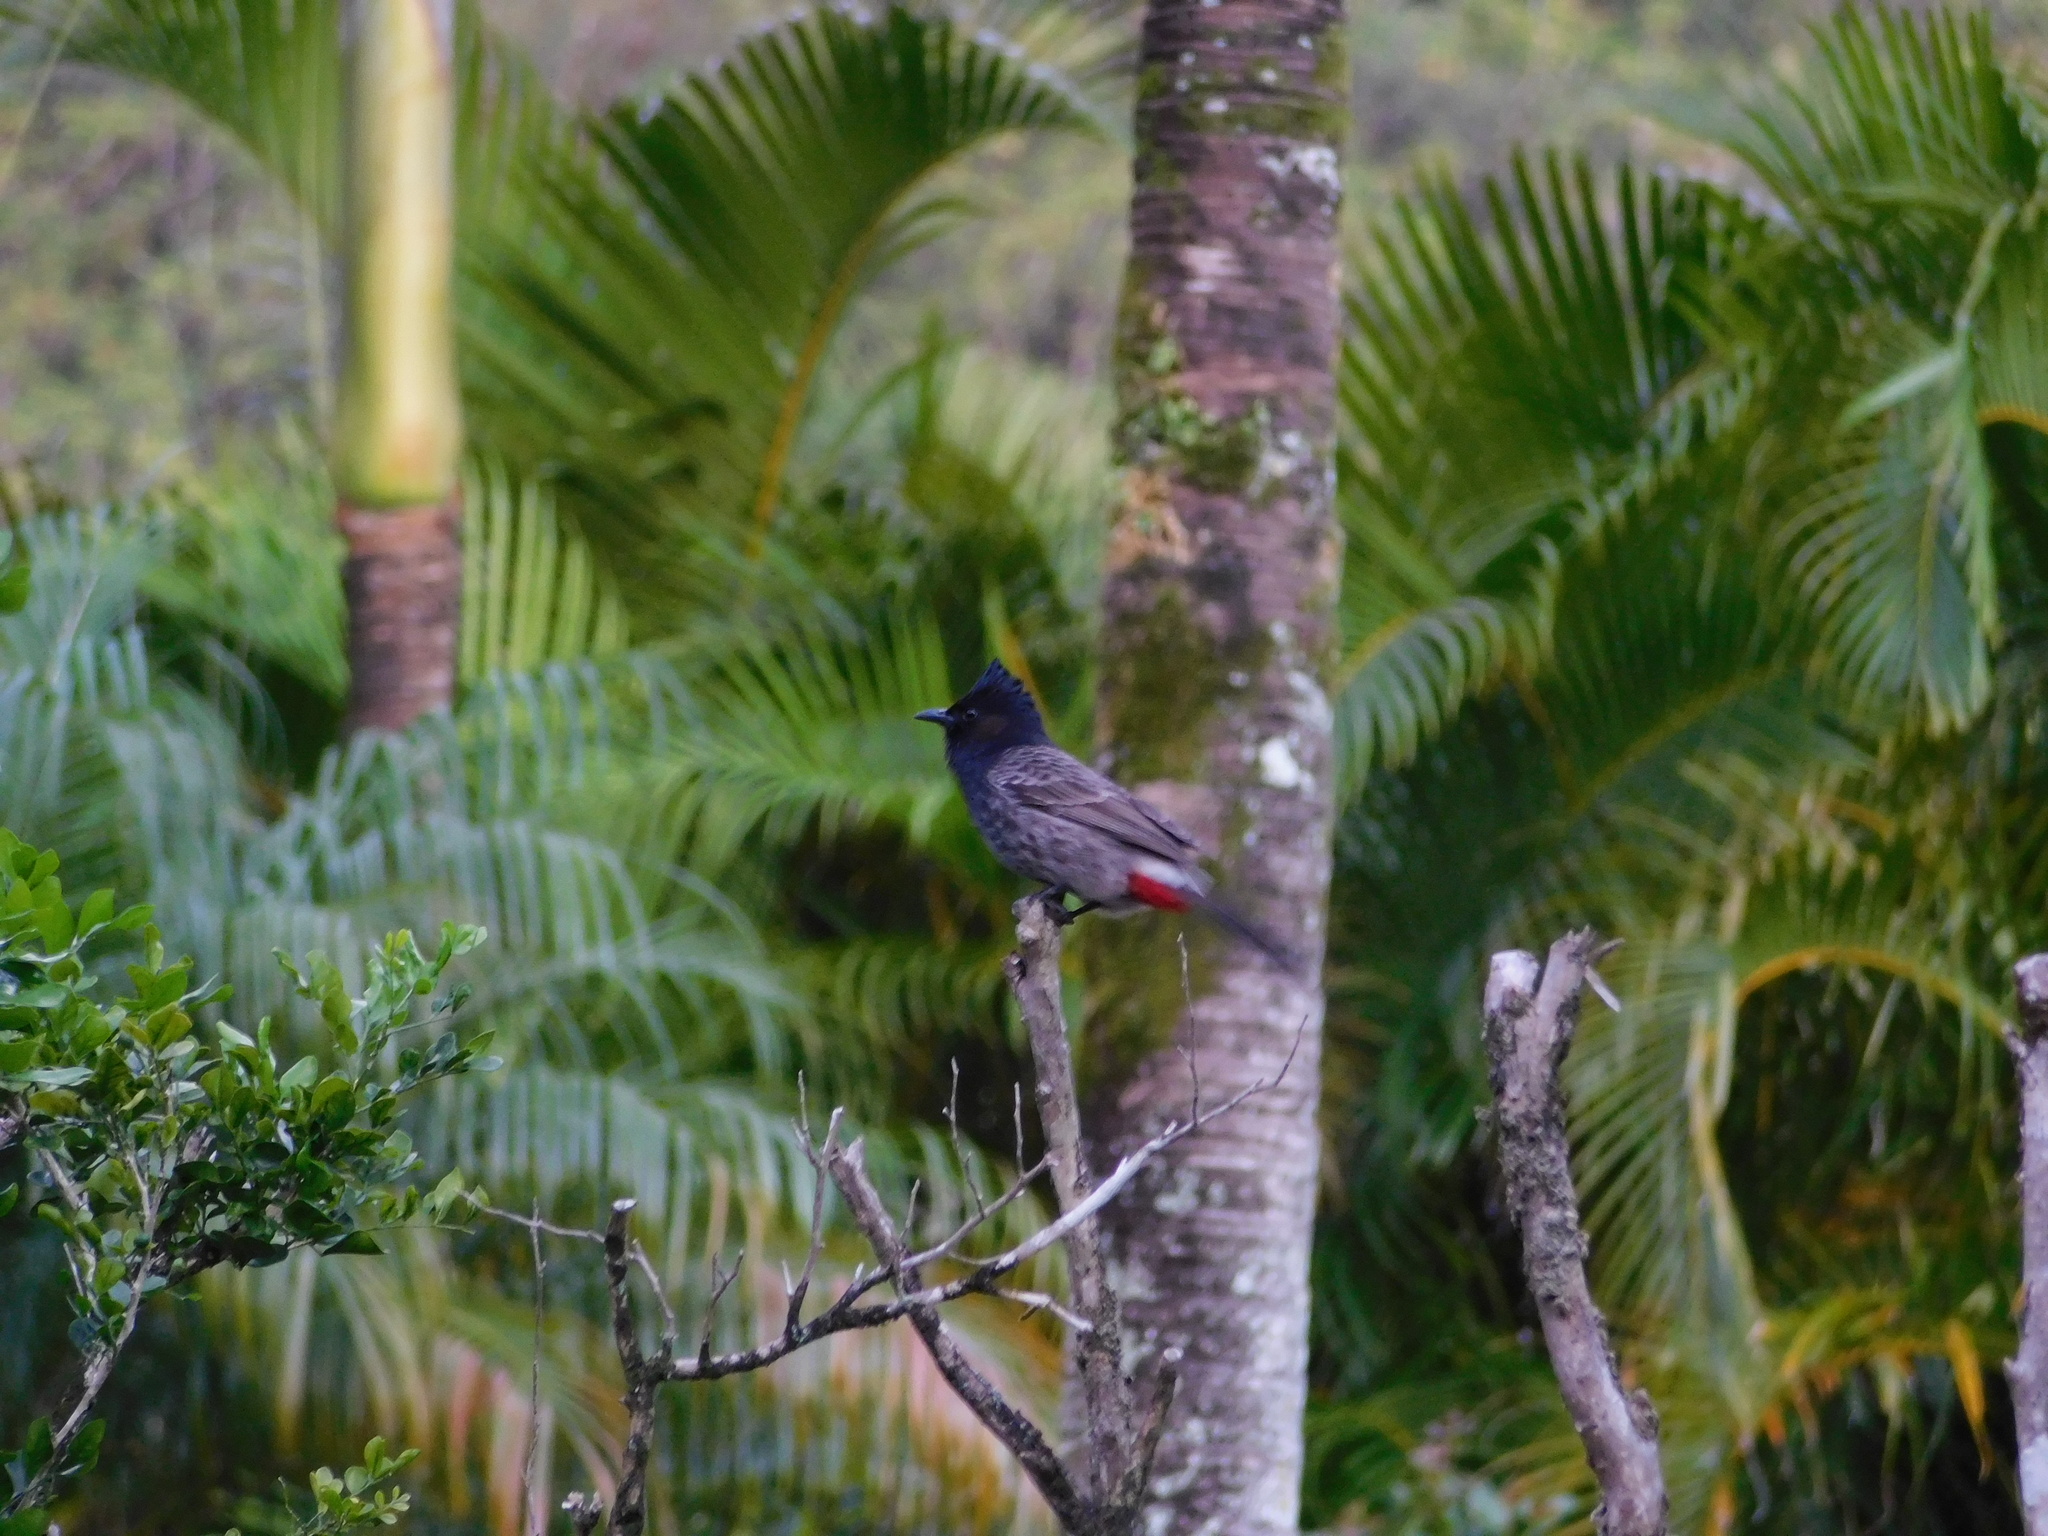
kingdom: Animalia
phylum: Chordata
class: Aves
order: Passeriformes
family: Pycnonotidae
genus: Pycnonotus
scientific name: Pycnonotus cafer
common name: Red-vented bulbul
